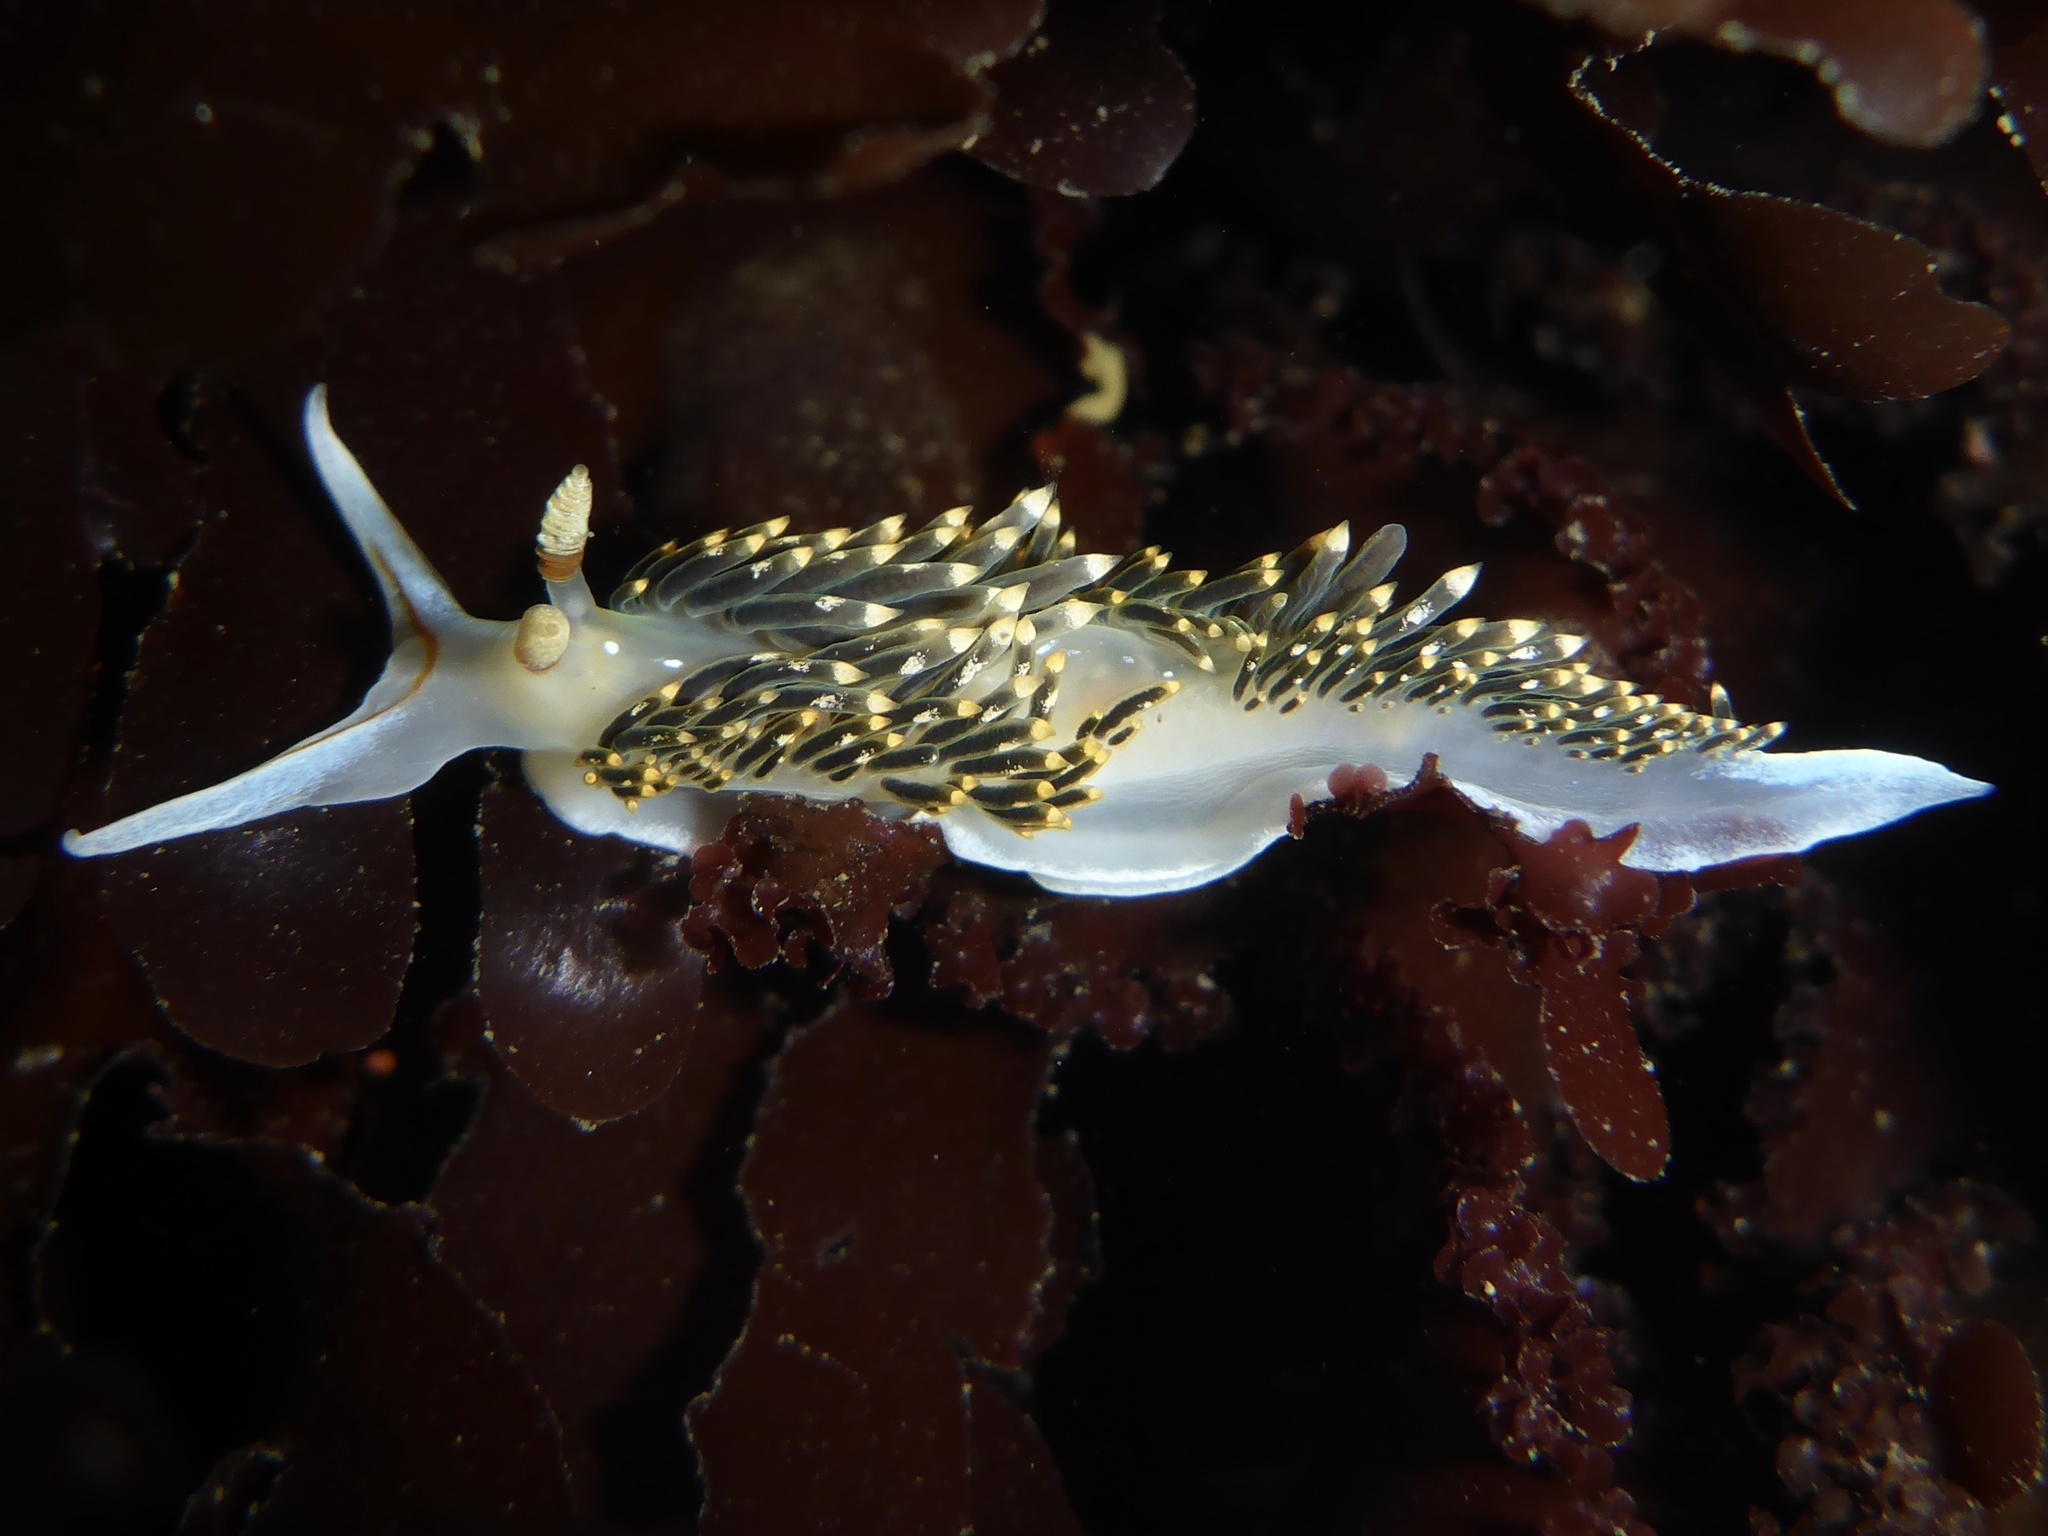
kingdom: Animalia
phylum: Mollusca
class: Gastropoda
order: Nudibranchia
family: Facelinidae
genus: Phidiana
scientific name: Phidiana hiltoni
